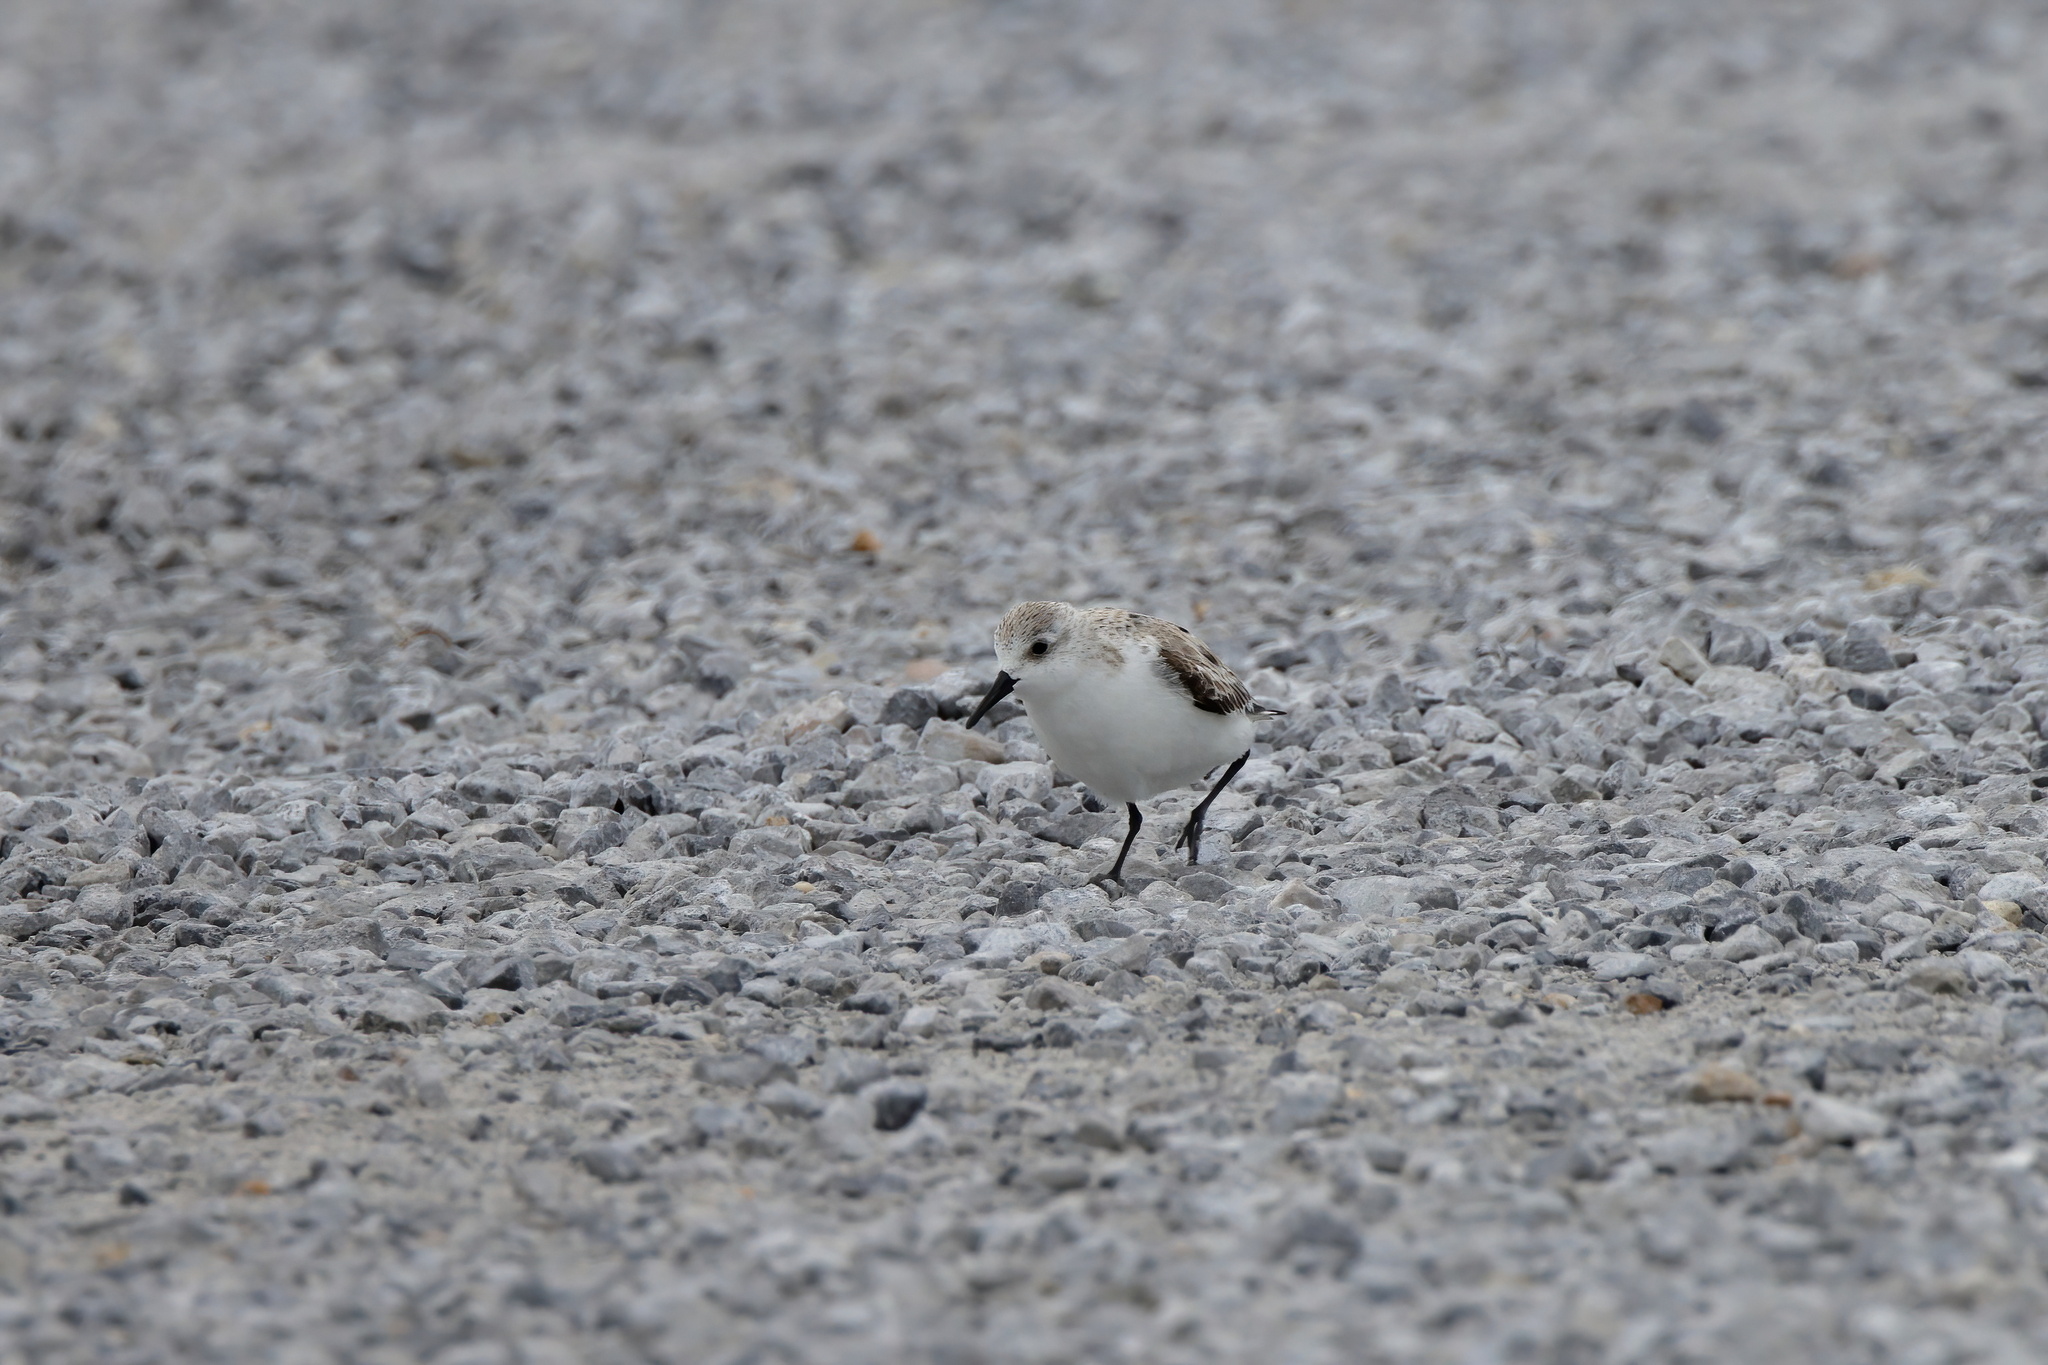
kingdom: Animalia
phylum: Chordata
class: Aves
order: Charadriiformes
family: Scolopacidae
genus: Calidris
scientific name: Calidris alba
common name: Sanderling
